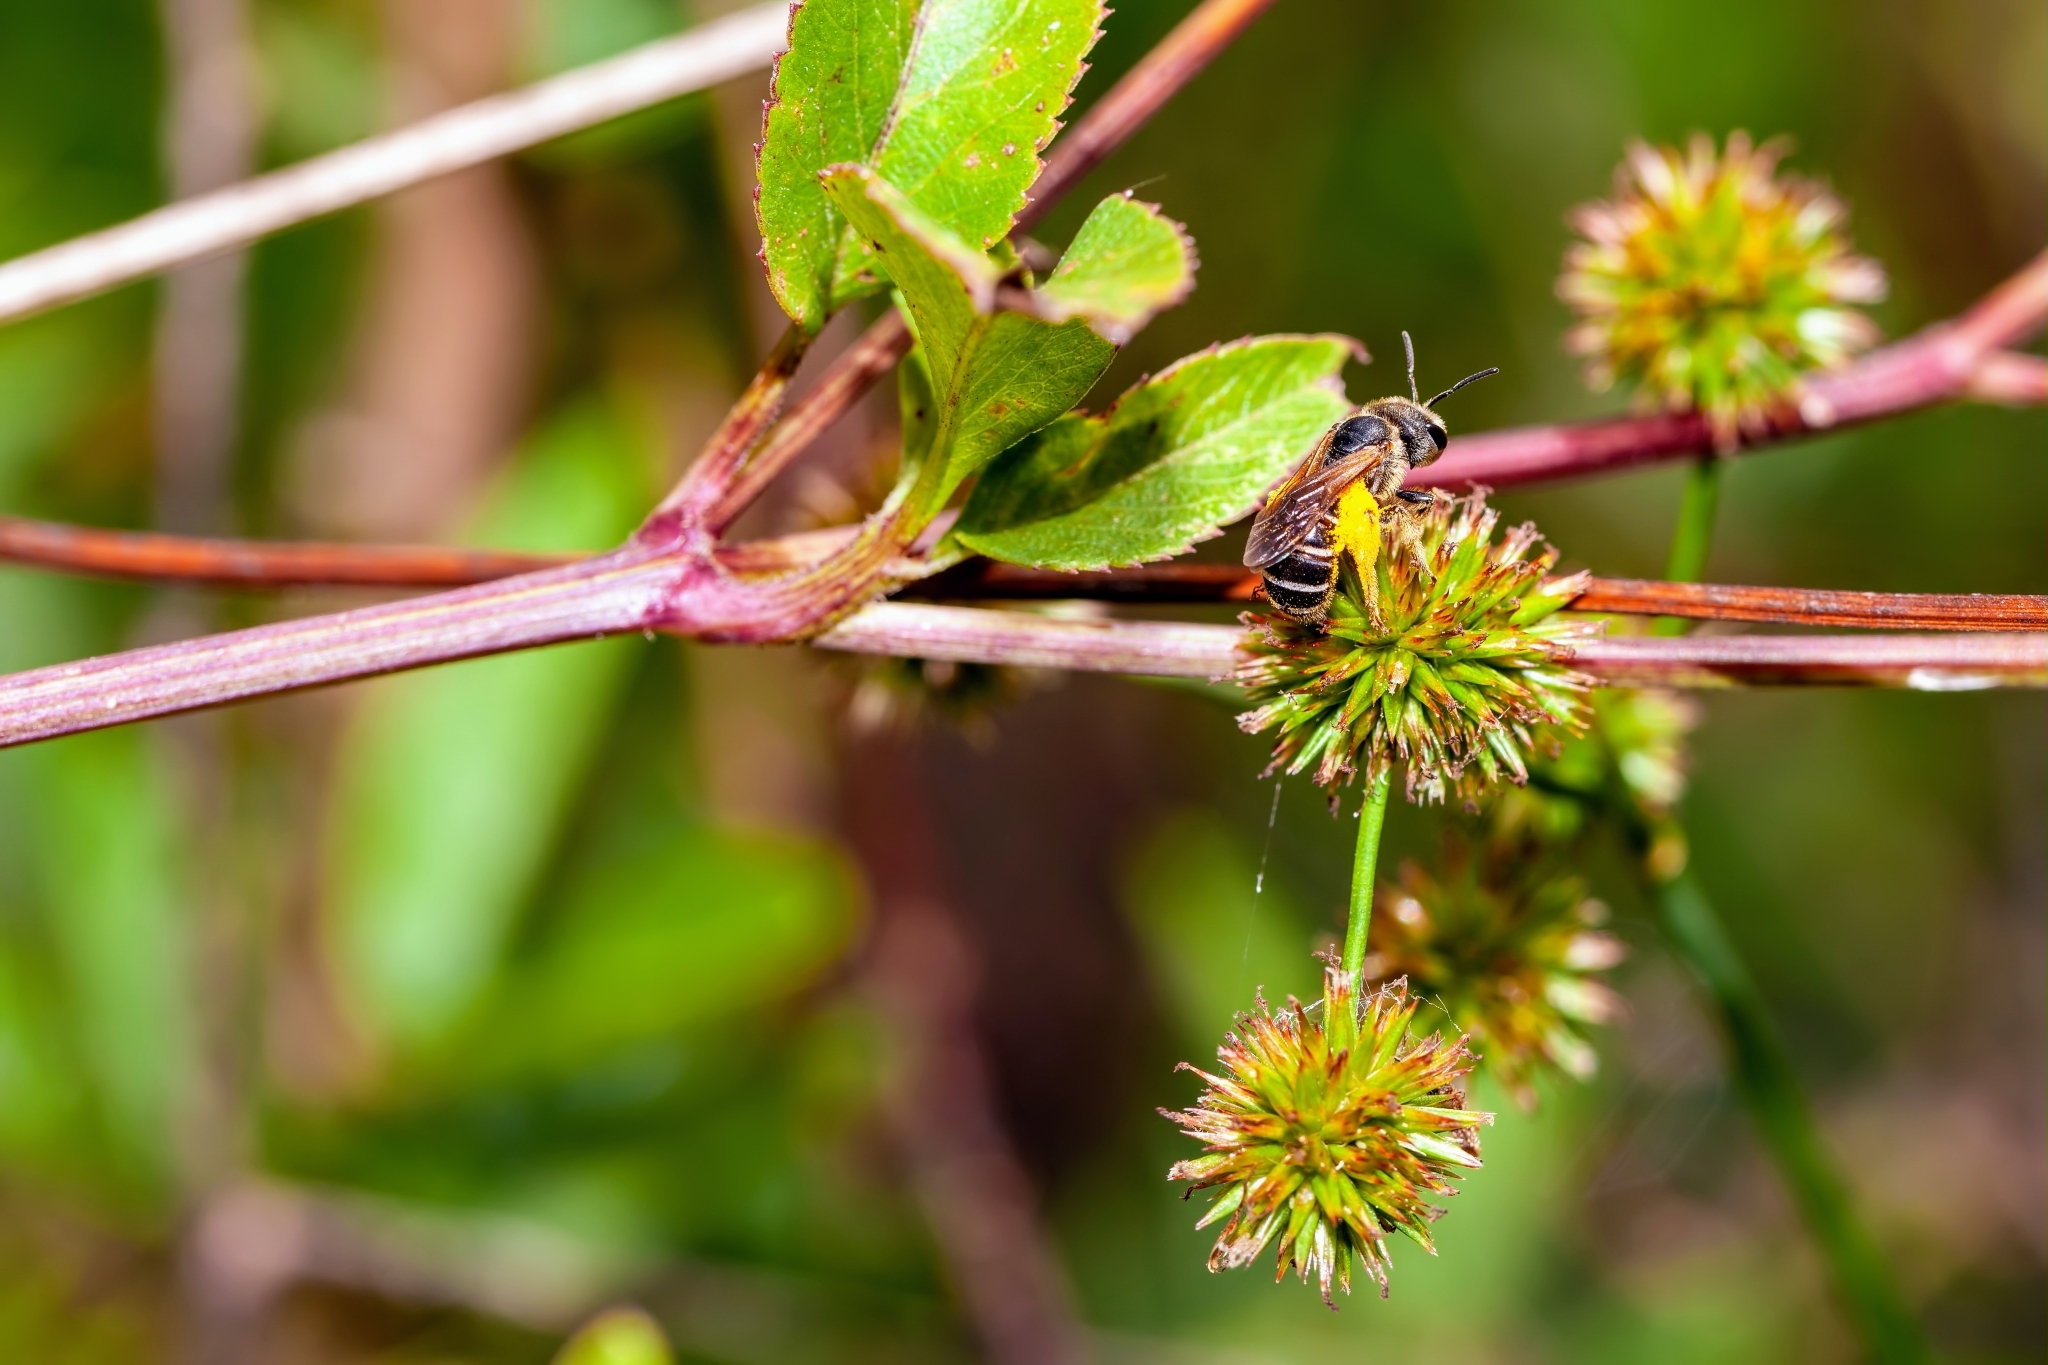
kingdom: Animalia
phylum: Arthropoda
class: Insecta
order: Hymenoptera
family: Halictidae
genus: Halictus
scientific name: Halictus poeyi
